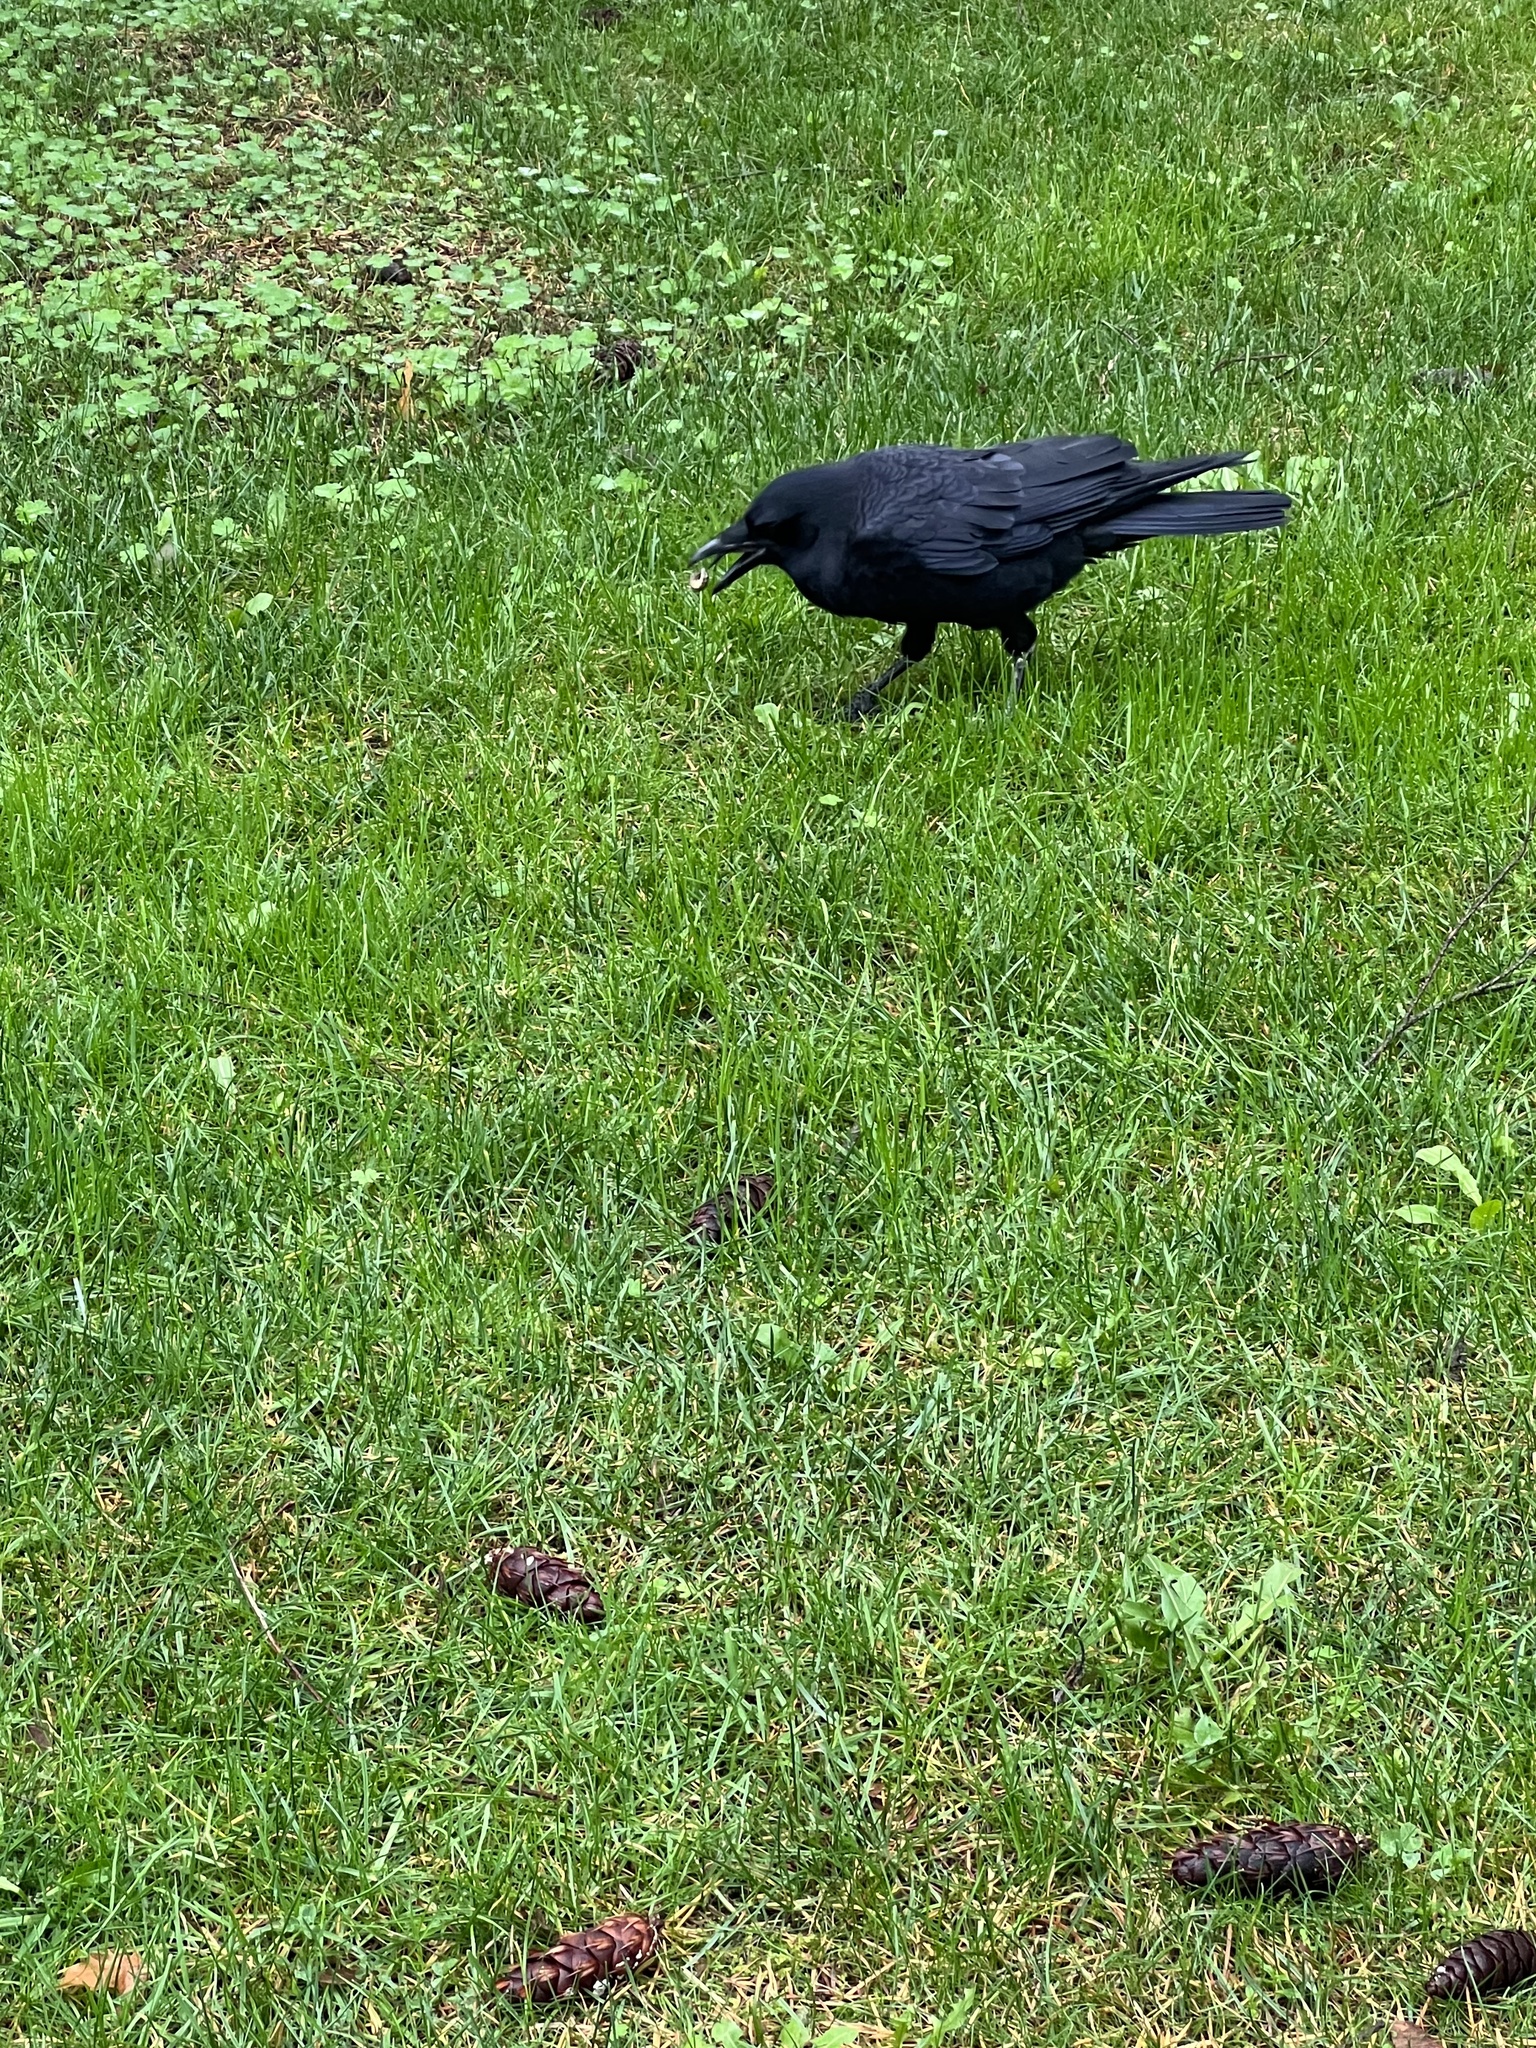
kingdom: Animalia
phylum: Chordata
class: Aves
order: Passeriformes
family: Corvidae
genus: Corvus
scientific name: Corvus brachyrhynchos
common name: American crow
